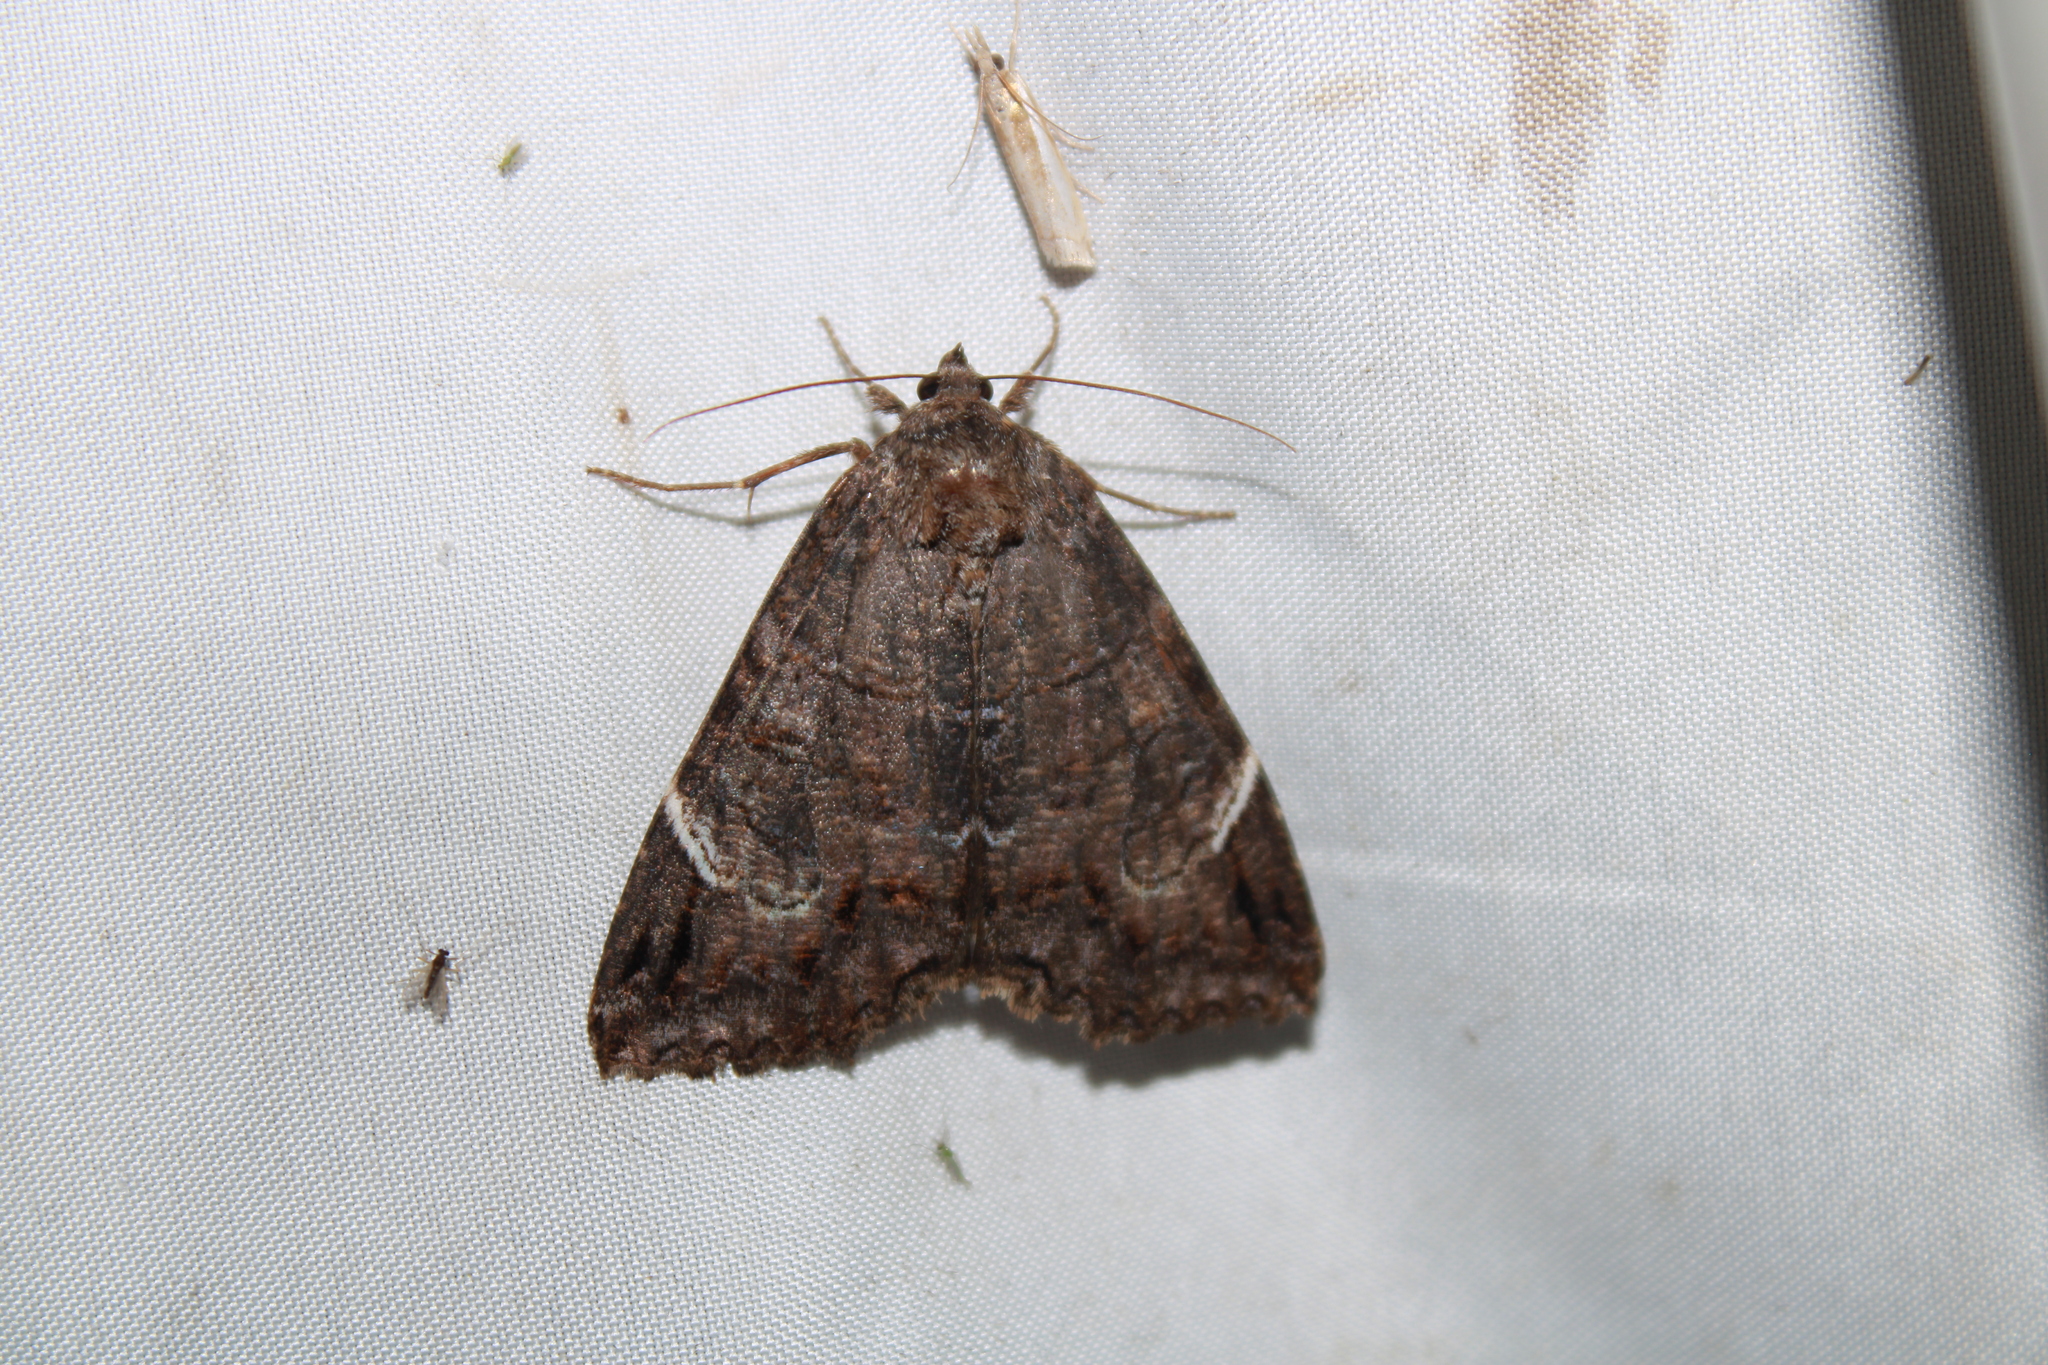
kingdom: Animalia
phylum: Arthropoda
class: Insecta
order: Lepidoptera
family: Erebidae
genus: Euparthenos
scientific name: Euparthenos nubilis
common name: Locust underwing
